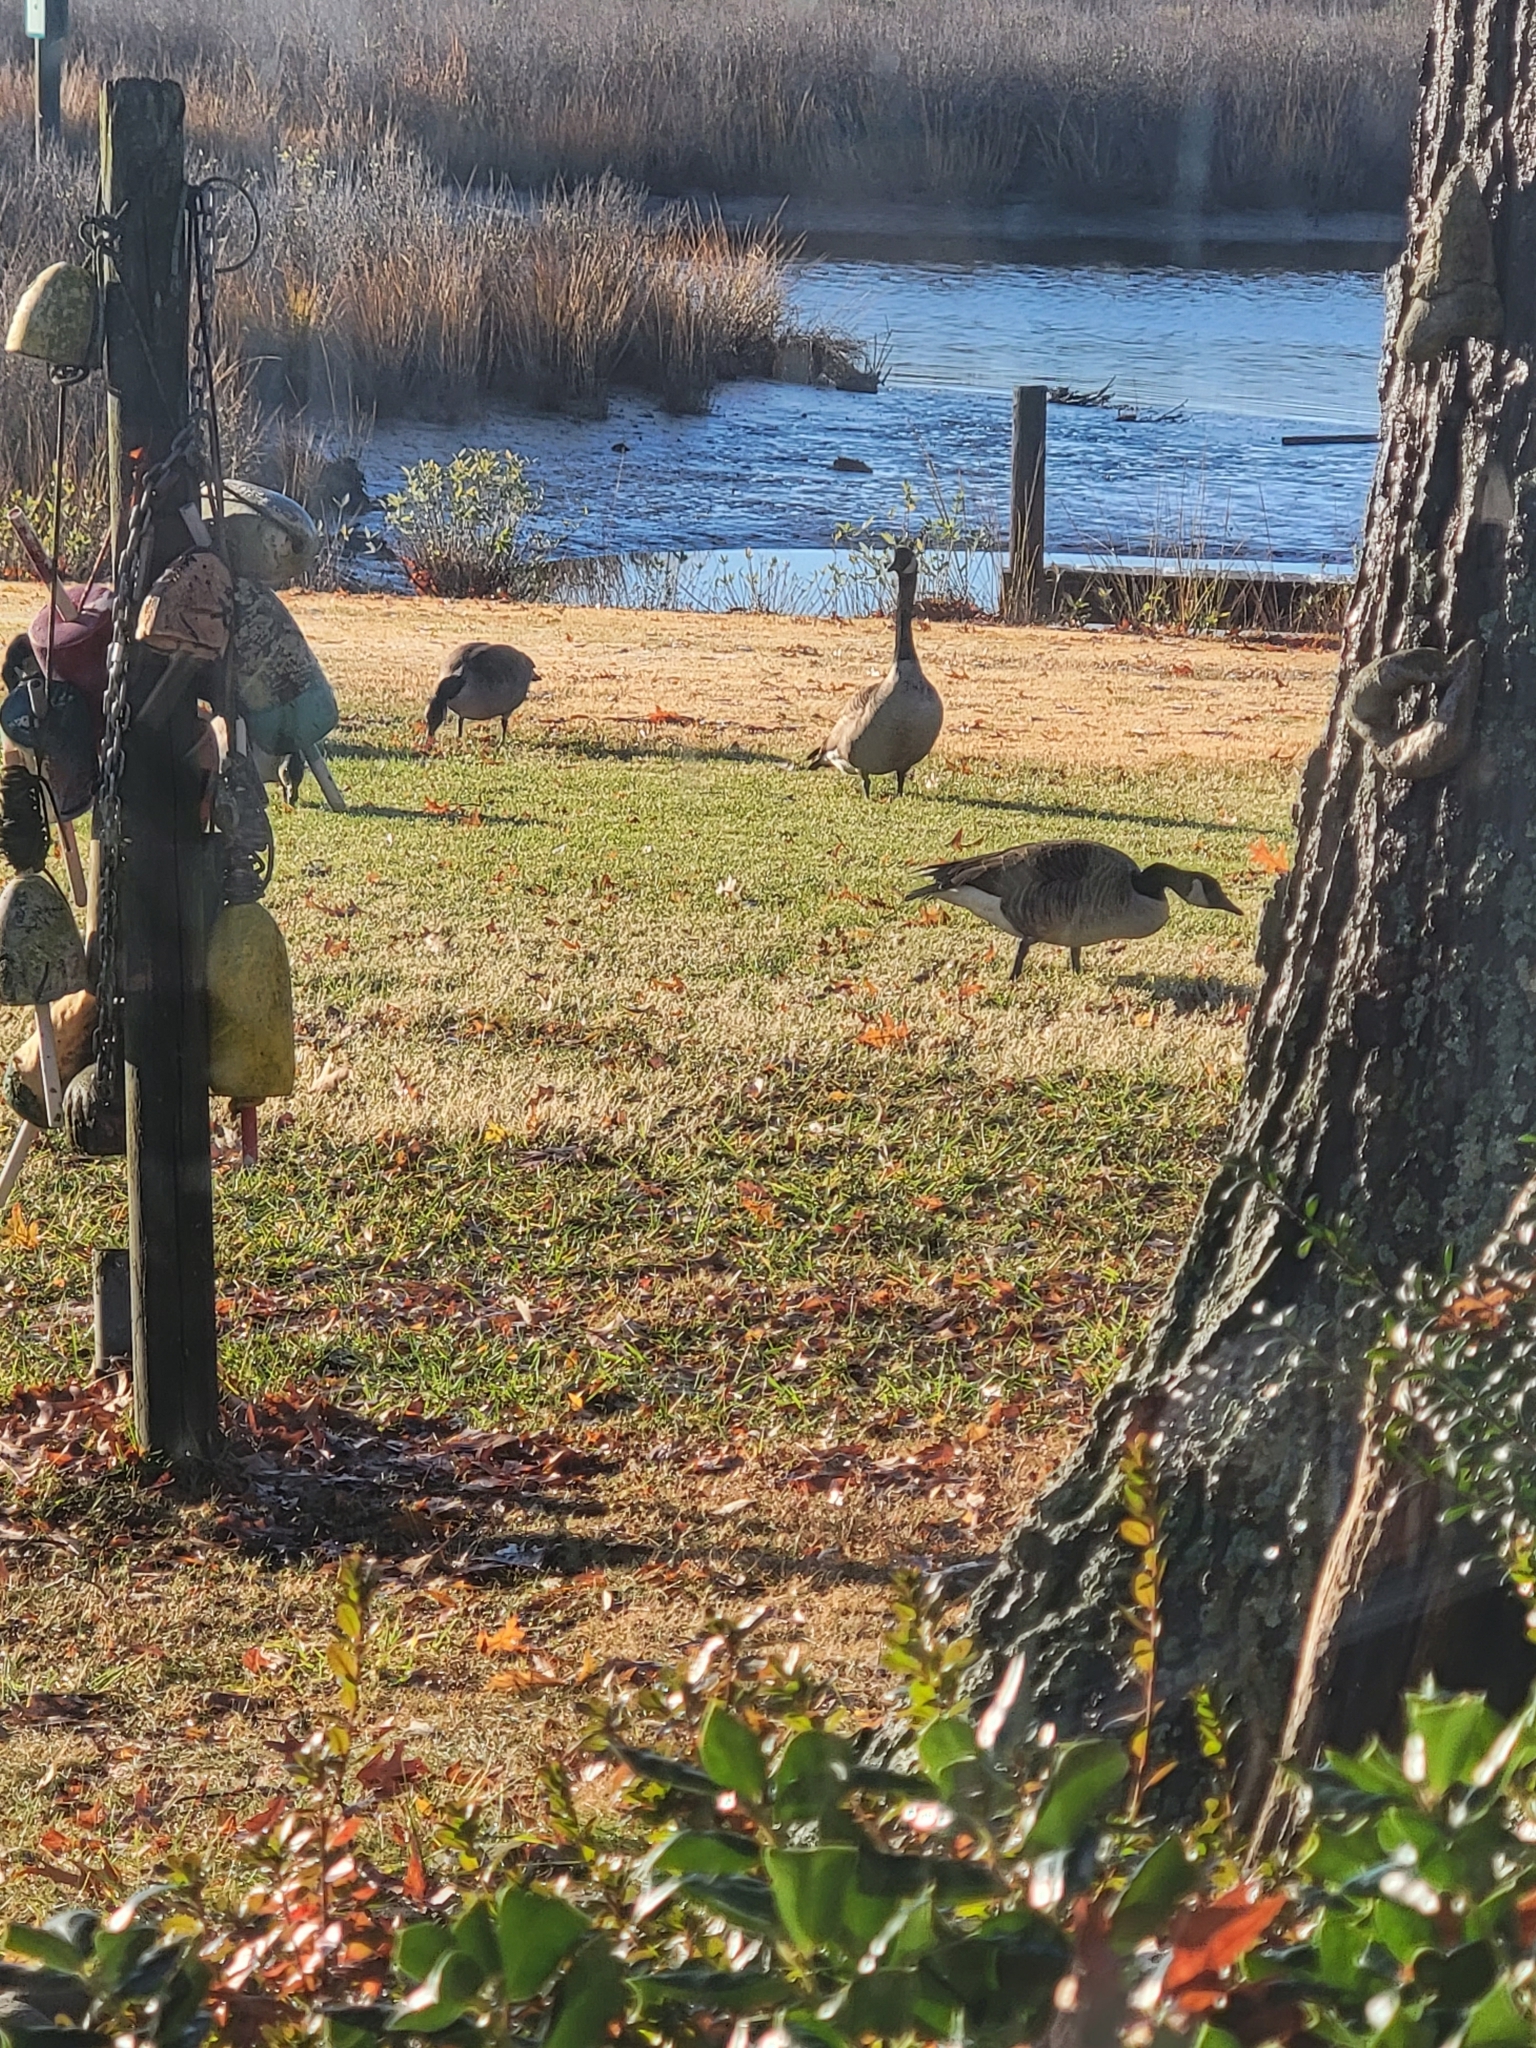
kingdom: Animalia
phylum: Chordata
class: Aves
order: Anseriformes
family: Anatidae
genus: Branta
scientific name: Branta canadensis
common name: Canada goose
